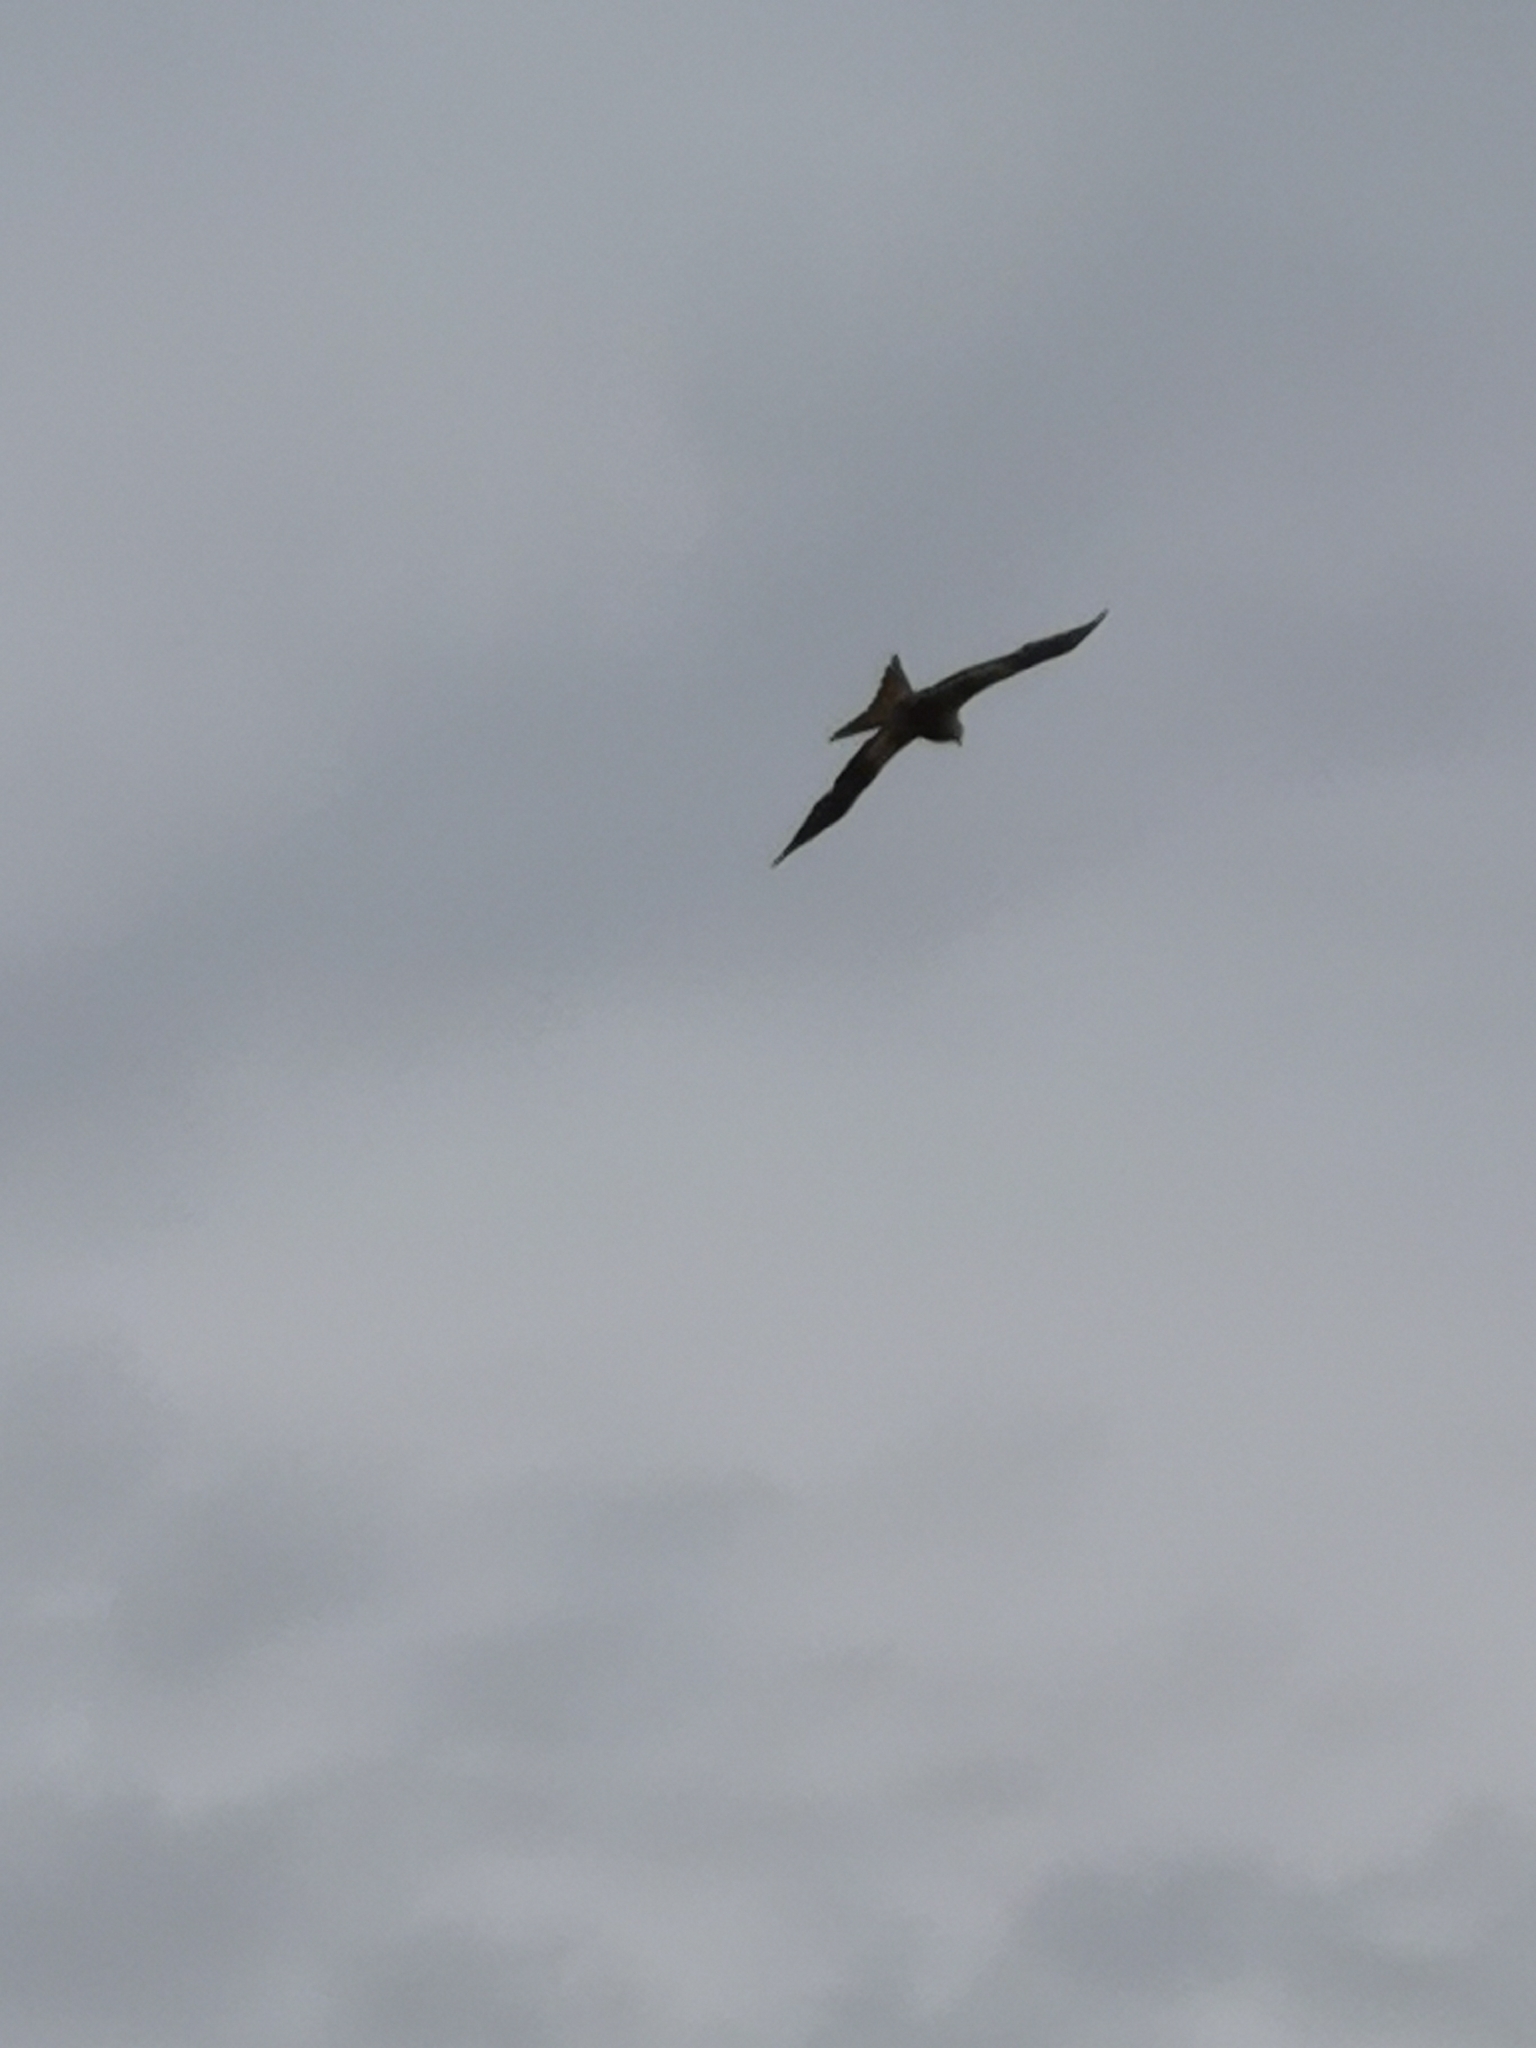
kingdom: Animalia
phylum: Chordata
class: Aves
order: Accipitriformes
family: Accipitridae
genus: Milvus
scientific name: Milvus milvus
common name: Red kite
